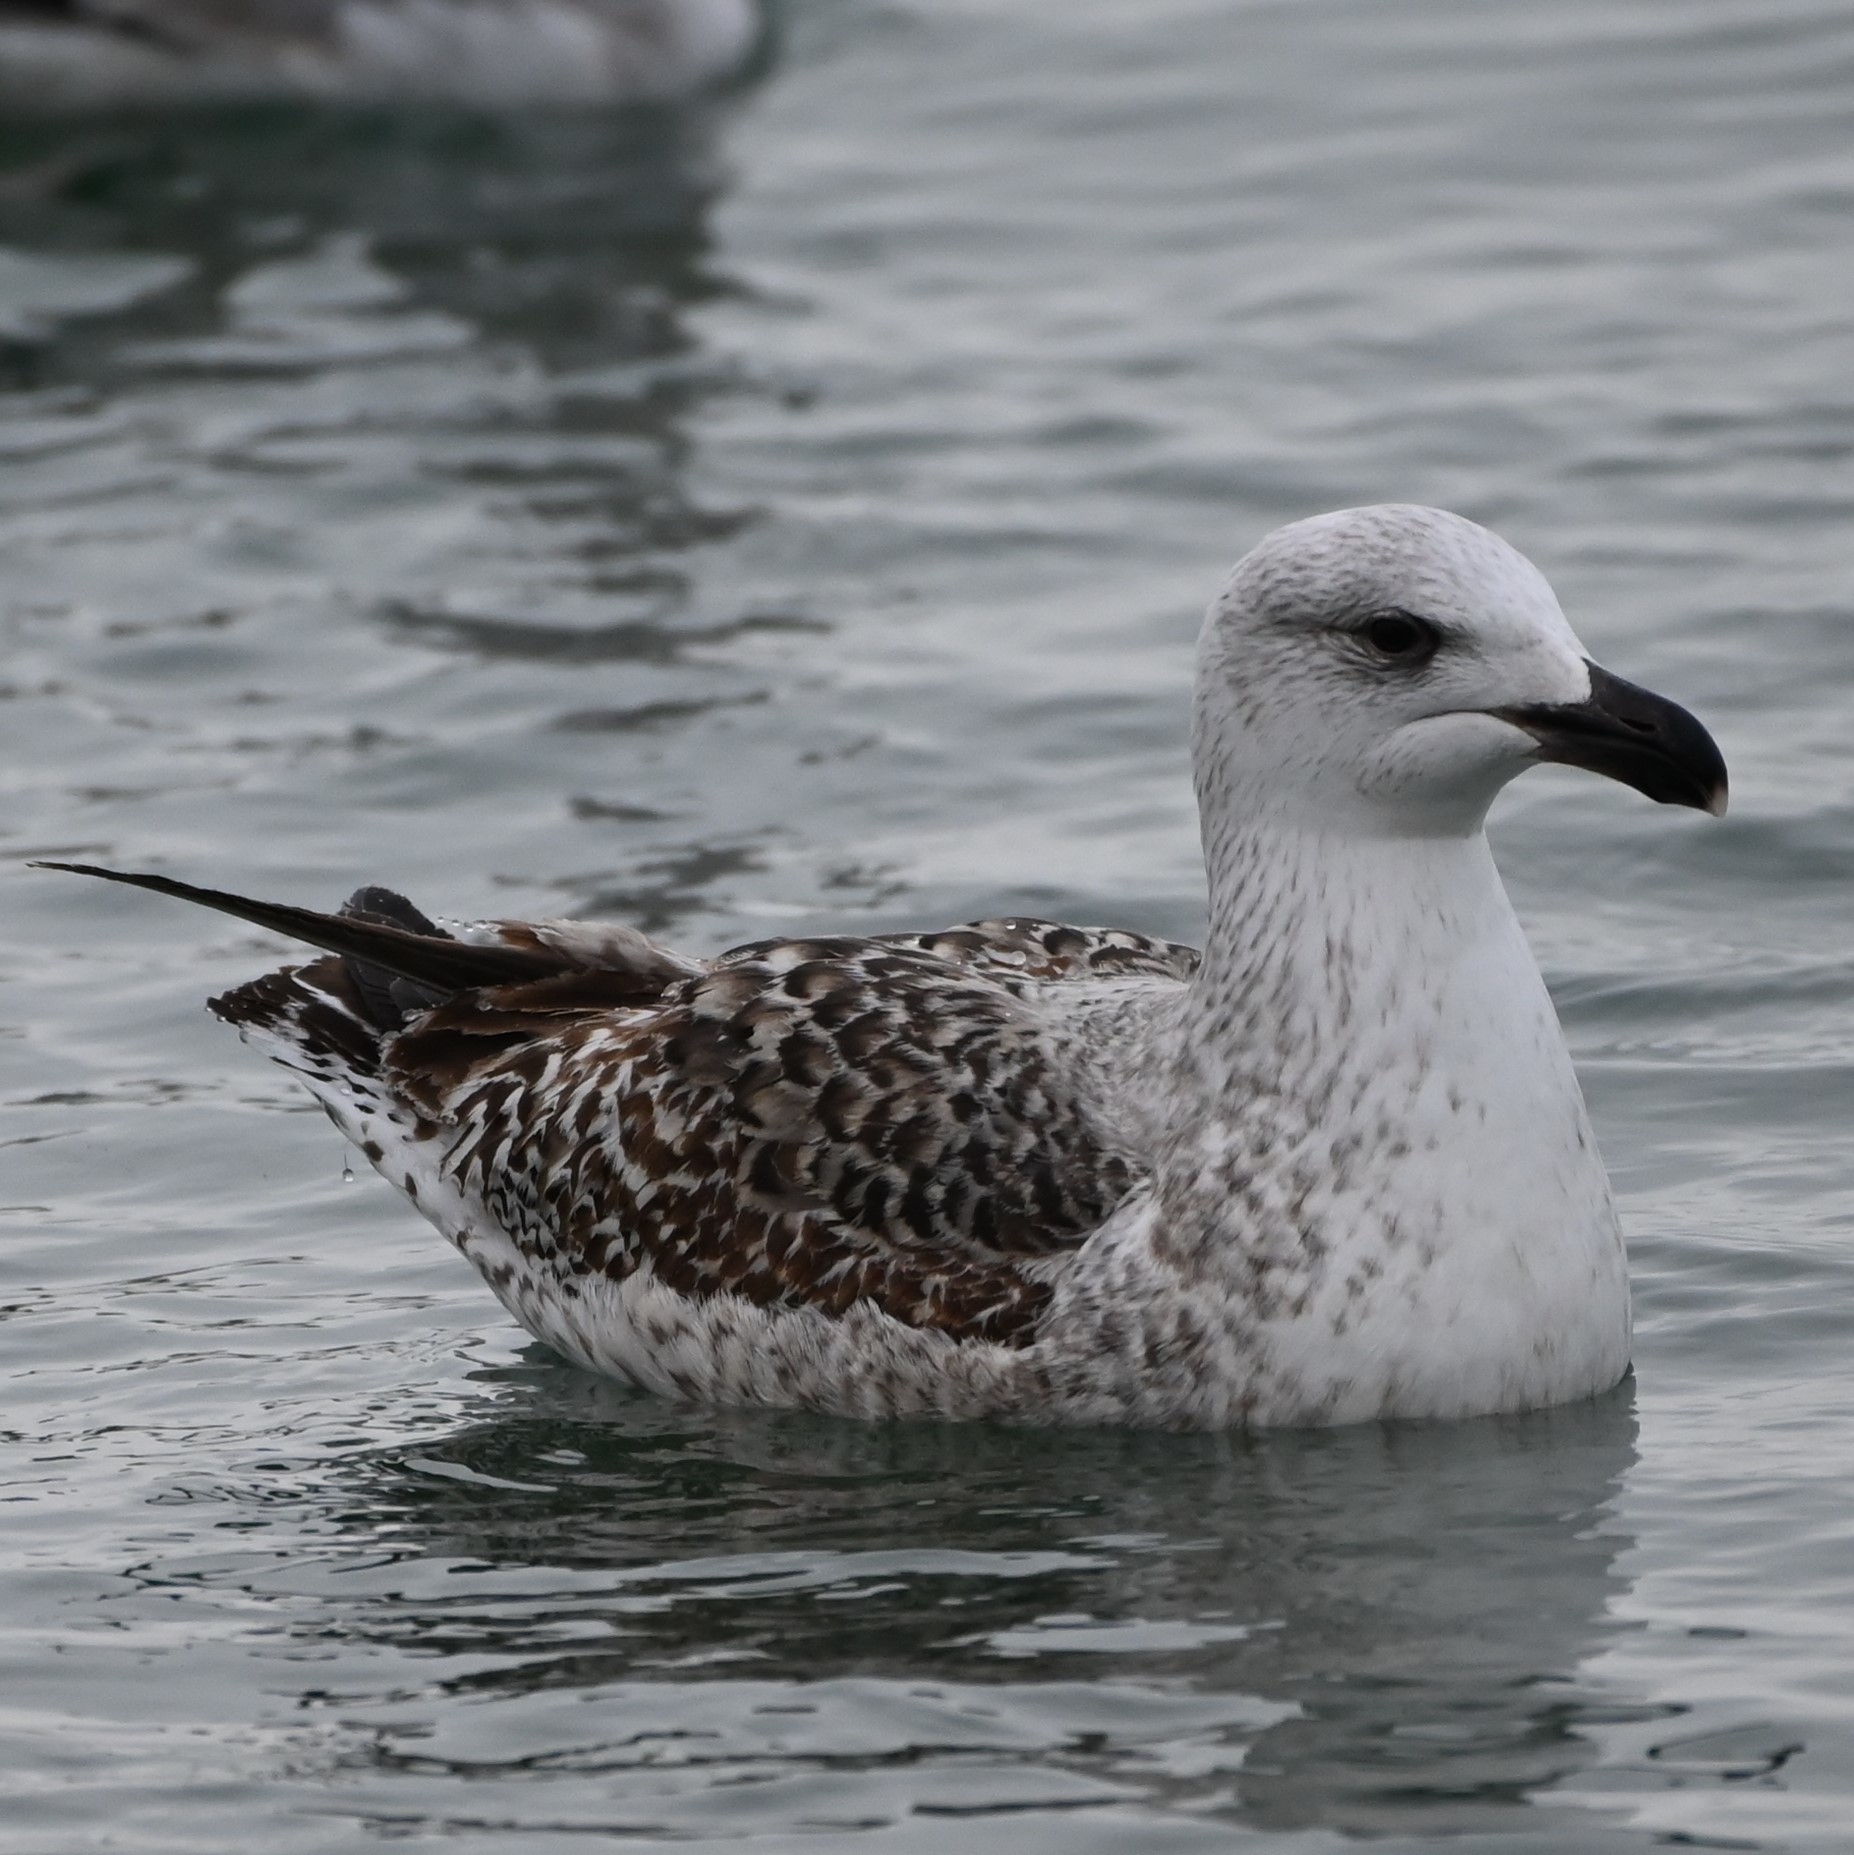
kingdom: Animalia
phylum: Chordata
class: Aves
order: Charadriiformes
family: Laridae
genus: Larus
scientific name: Larus marinus
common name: Great black-backed gull
